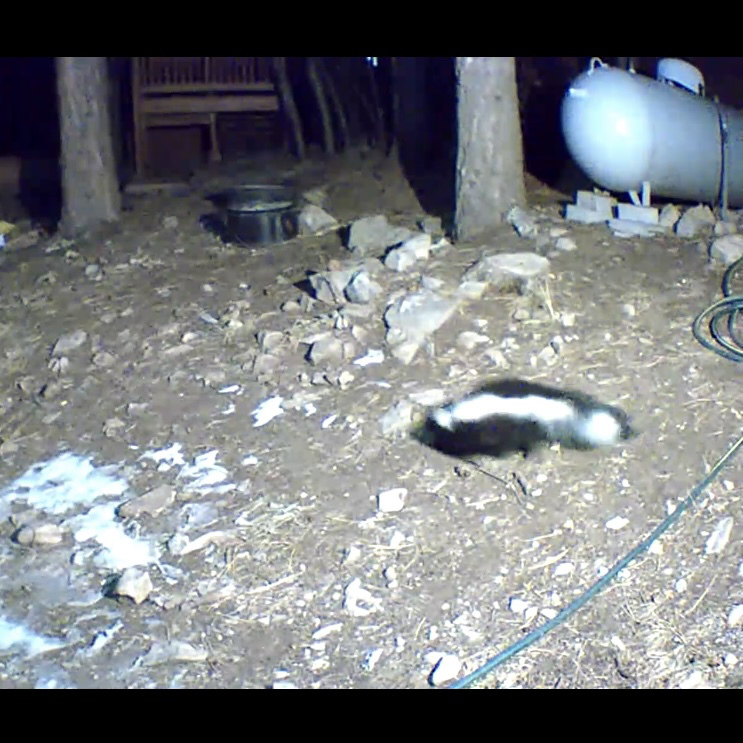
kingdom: Animalia
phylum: Chordata
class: Mammalia
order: Carnivora
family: Mephitidae
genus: Mephitis
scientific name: Mephitis mephitis
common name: Striped skunk
